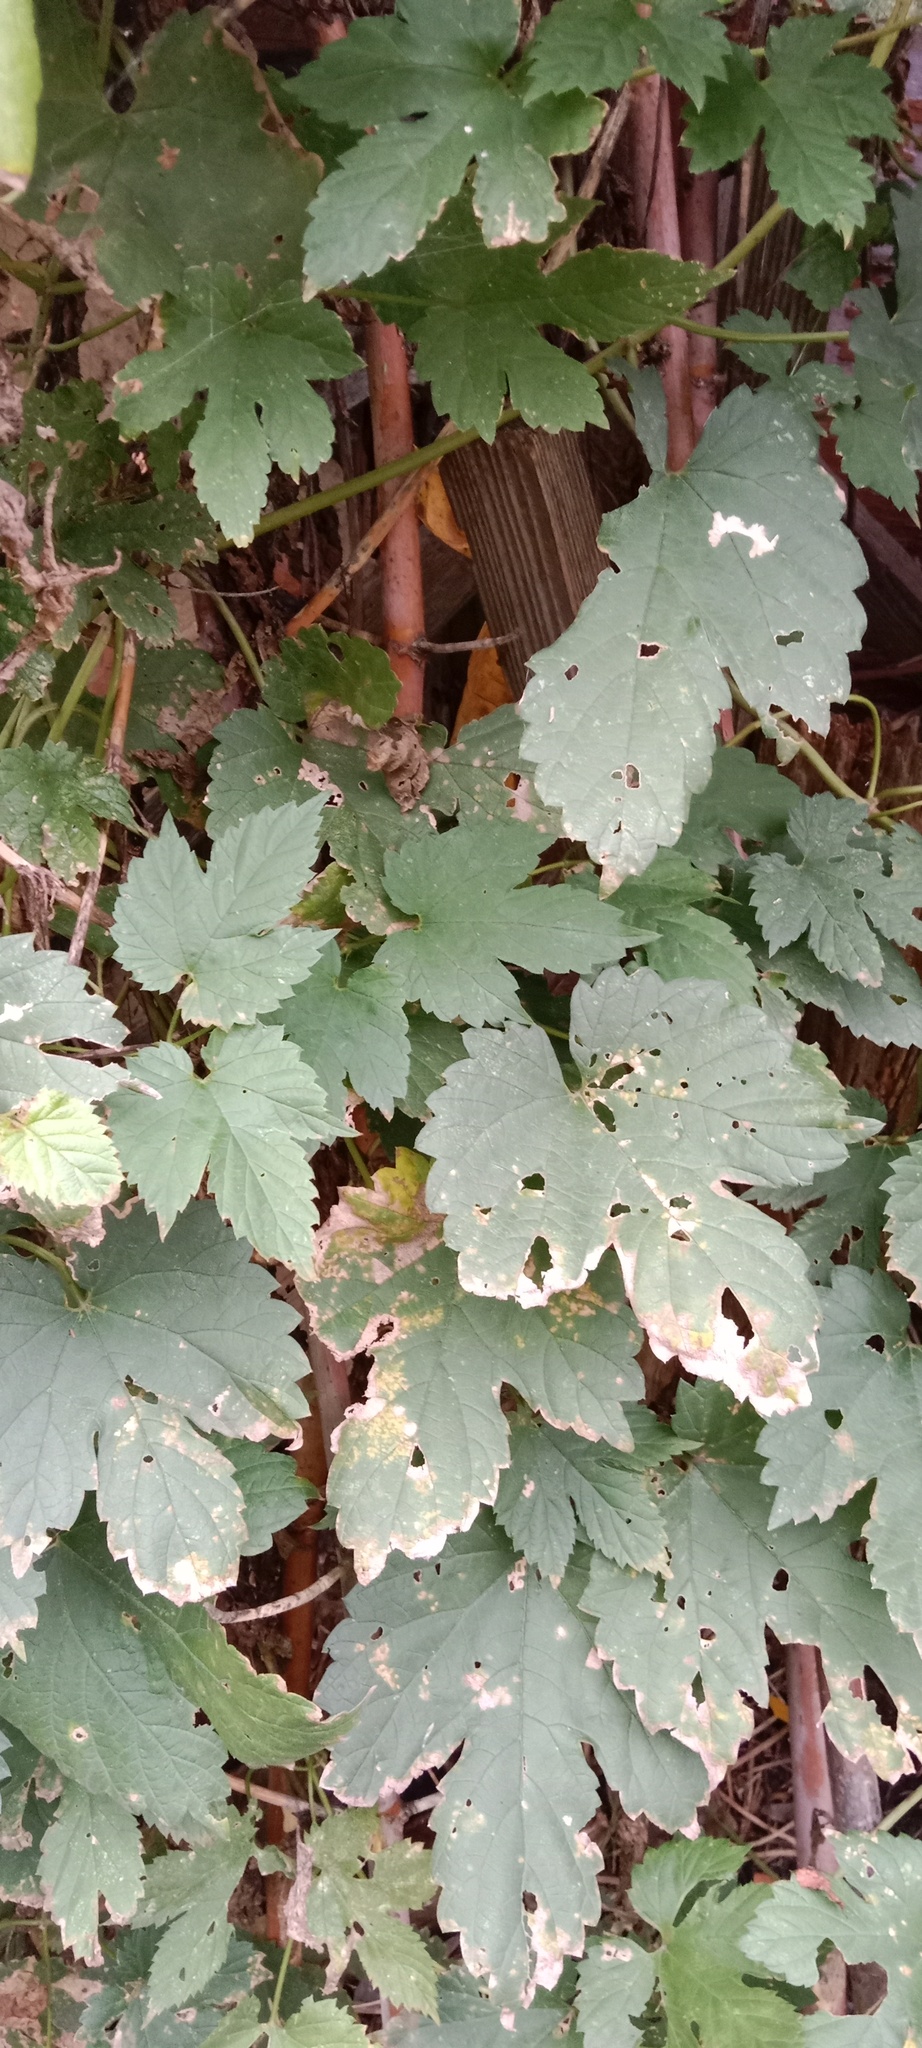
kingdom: Plantae
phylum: Tracheophyta
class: Magnoliopsida
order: Rosales
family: Cannabaceae
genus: Humulus
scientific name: Humulus lupulus
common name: Hop
